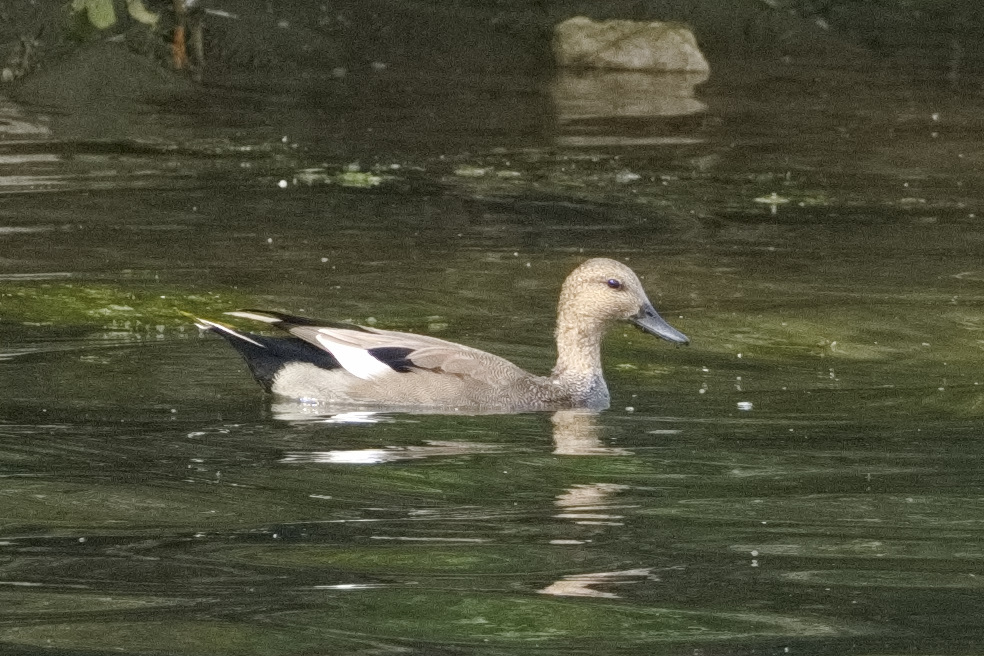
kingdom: Animalia
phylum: Chordata
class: Aves
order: Anseriformes
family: Anatidae
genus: Mareca
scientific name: Mareca strepera
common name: Gadwall
